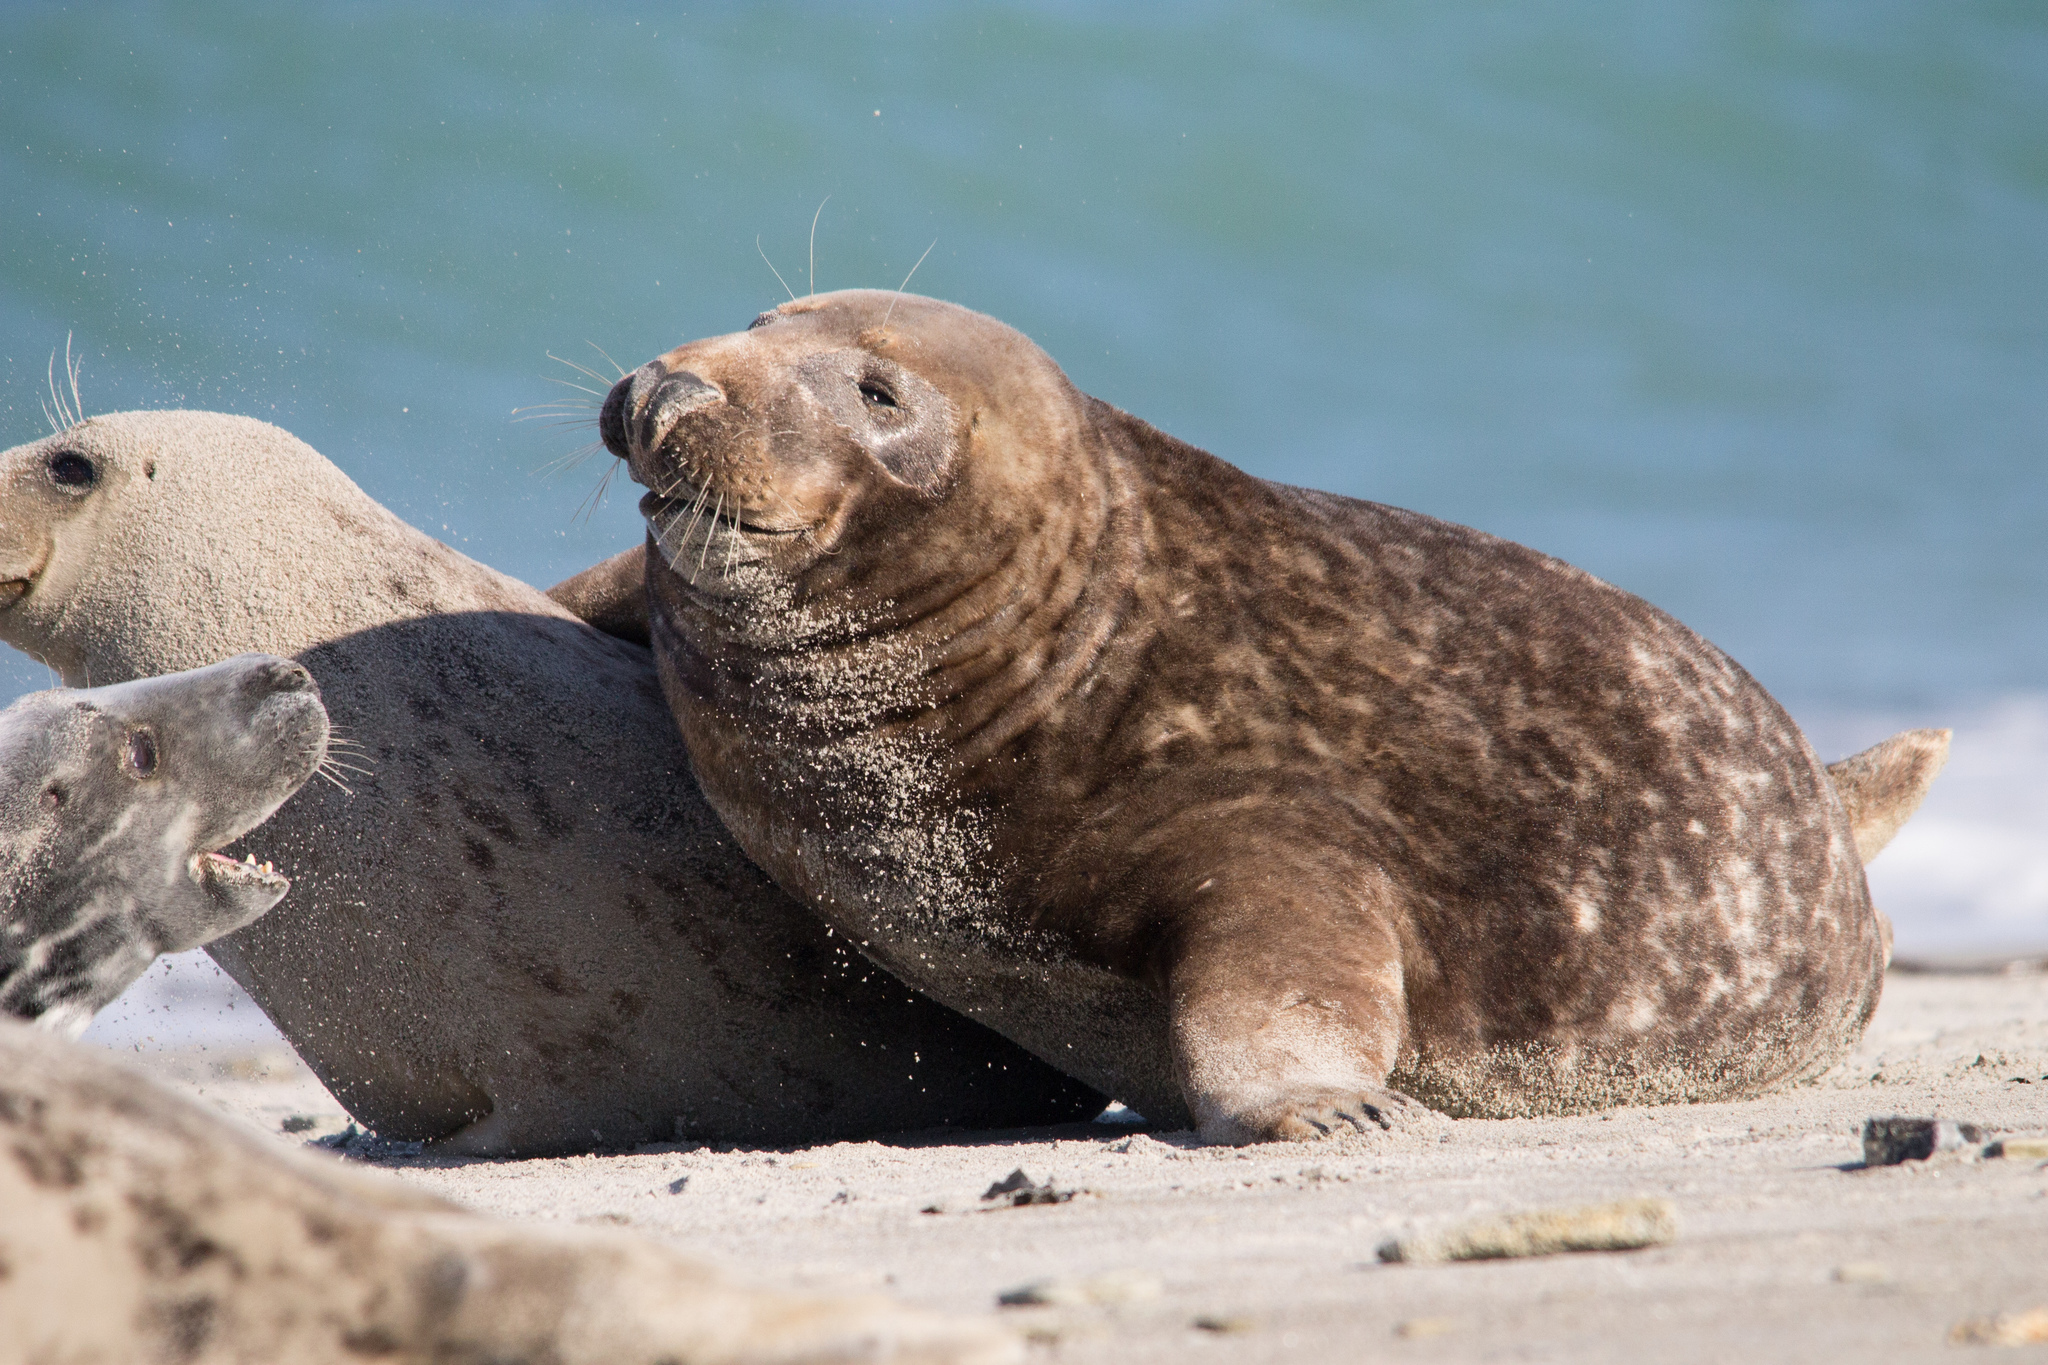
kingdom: Animalia
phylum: Chordata
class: Mammalia
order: Carnivora
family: Phocidae
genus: Halichoerus
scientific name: Halichoerus grypus
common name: Grey seal
